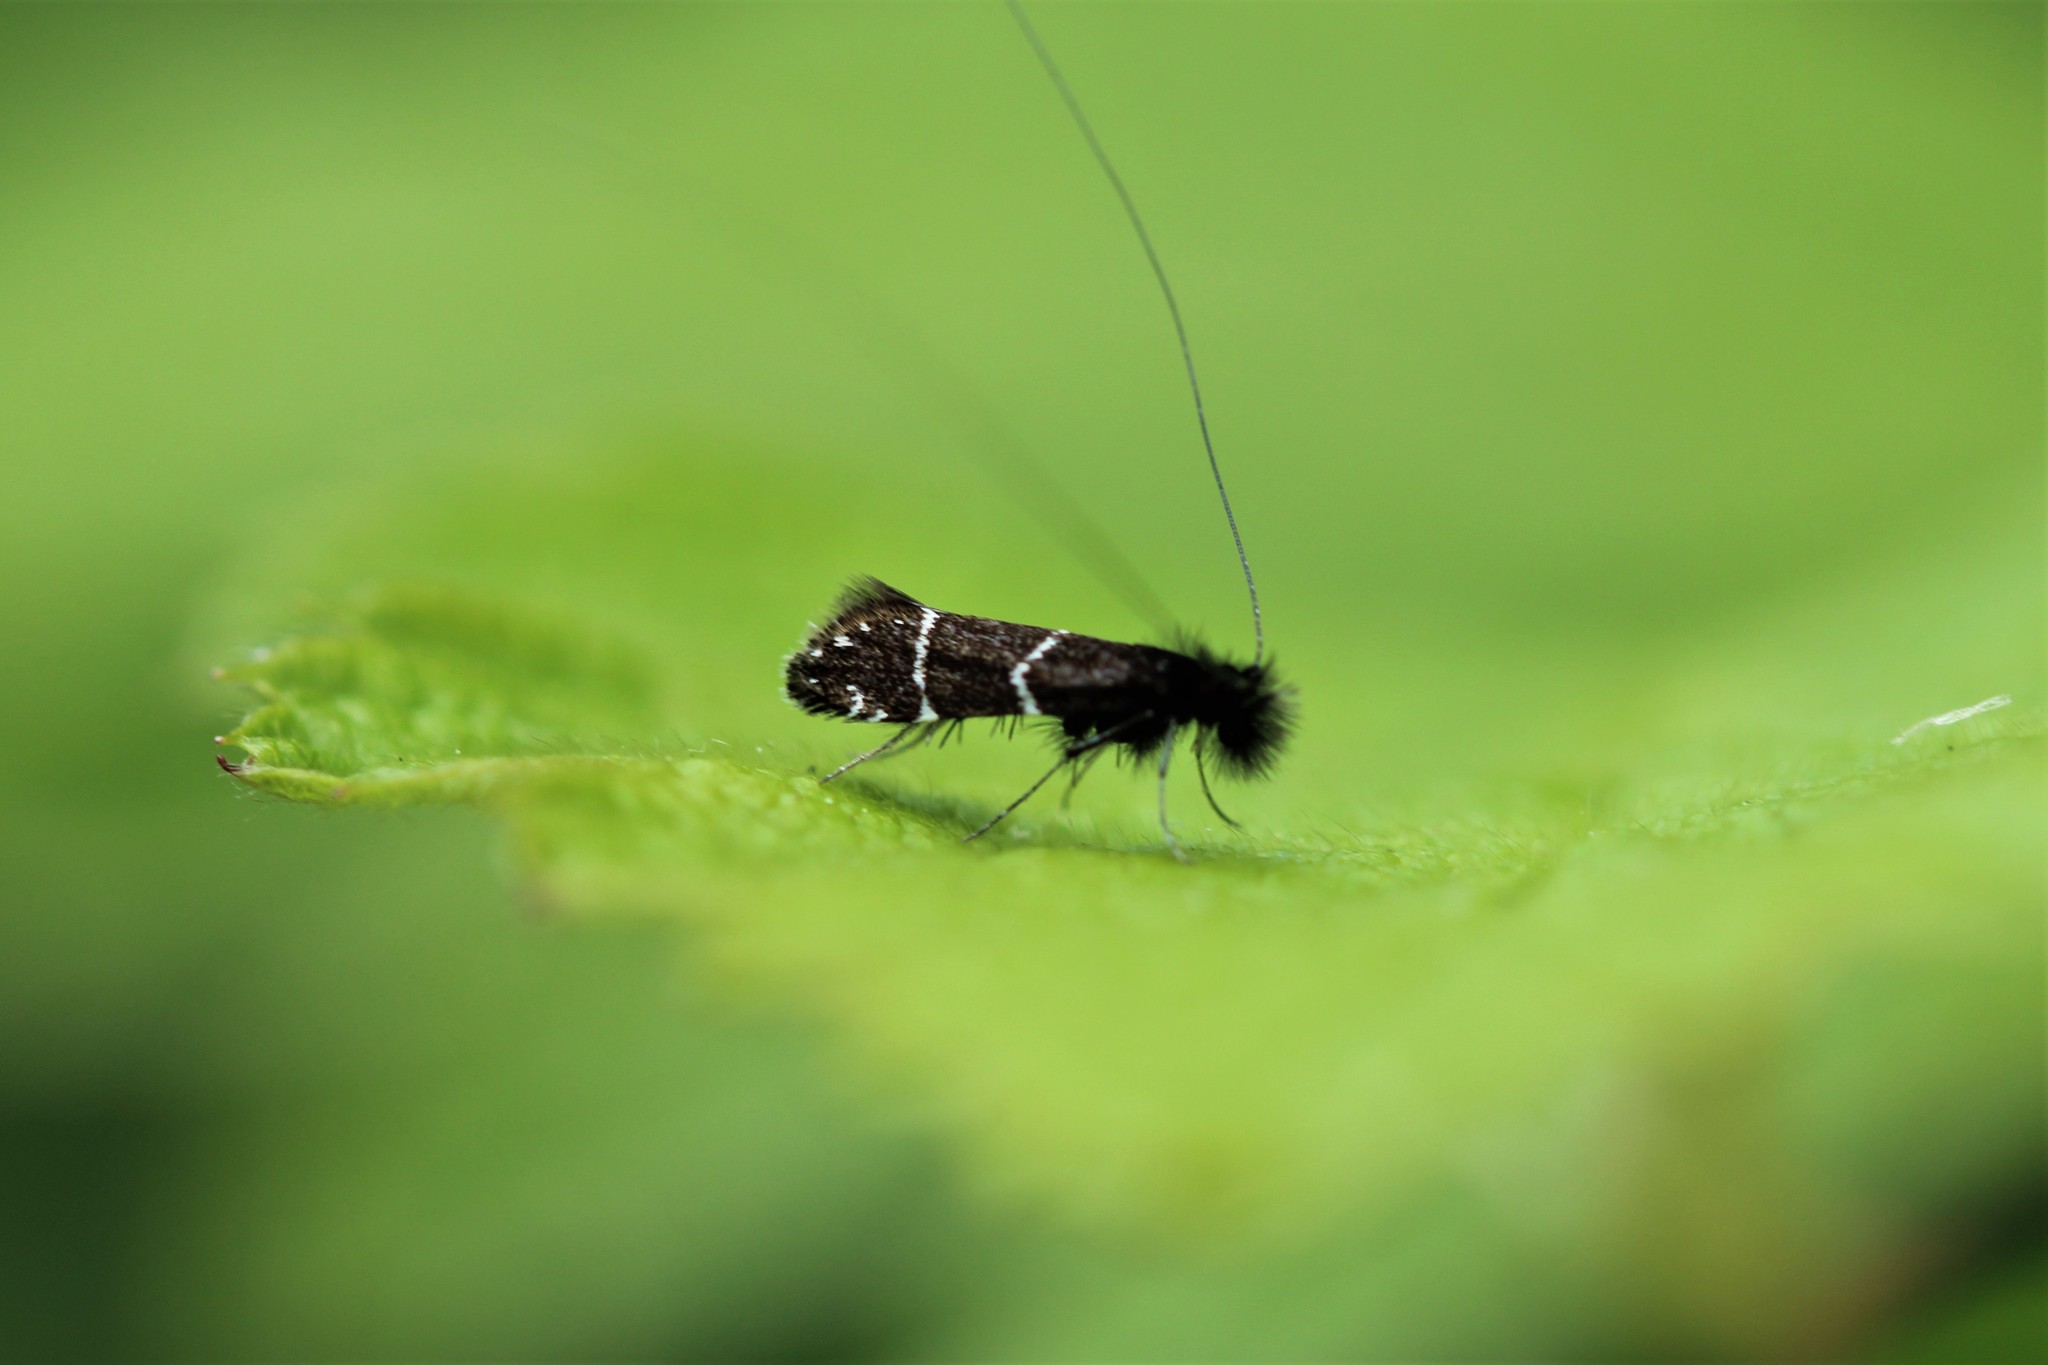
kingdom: Animalia
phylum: Arthropoda
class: Insecta
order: Lepidoptera
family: Adelidae
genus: Adela
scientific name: Adela septentrionella
